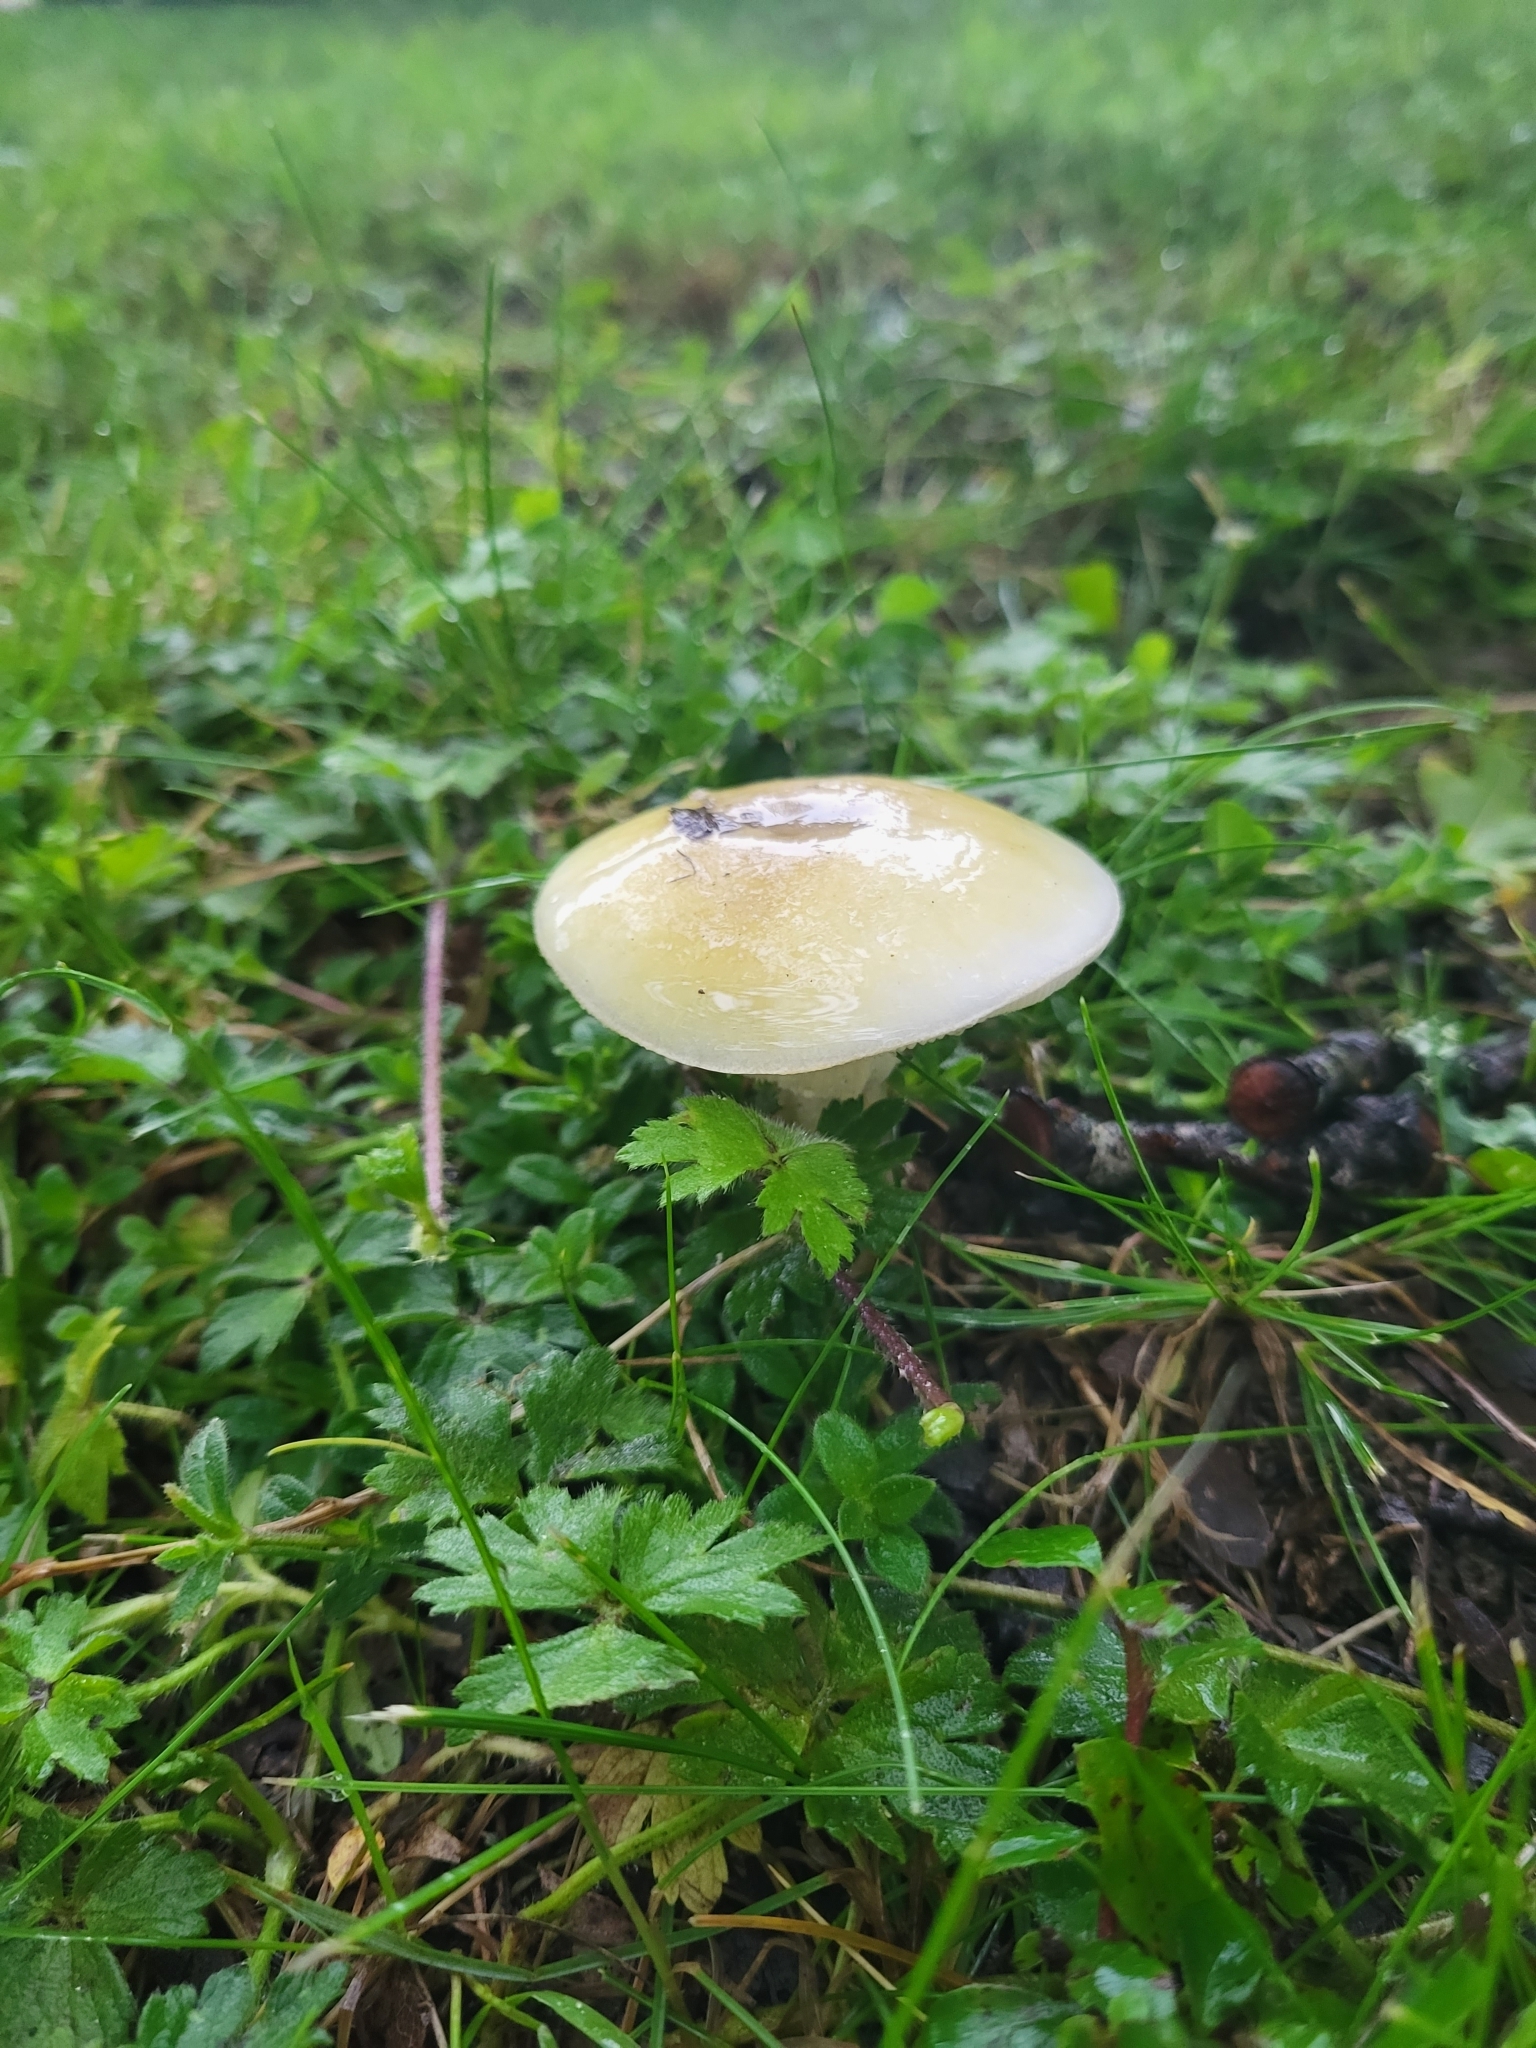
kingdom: Fungi
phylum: Basidiomycota
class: Agaricomycetes
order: Agaricales
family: Amanitaceae
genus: Amanita
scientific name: Amanita phalloides
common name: Death cap
